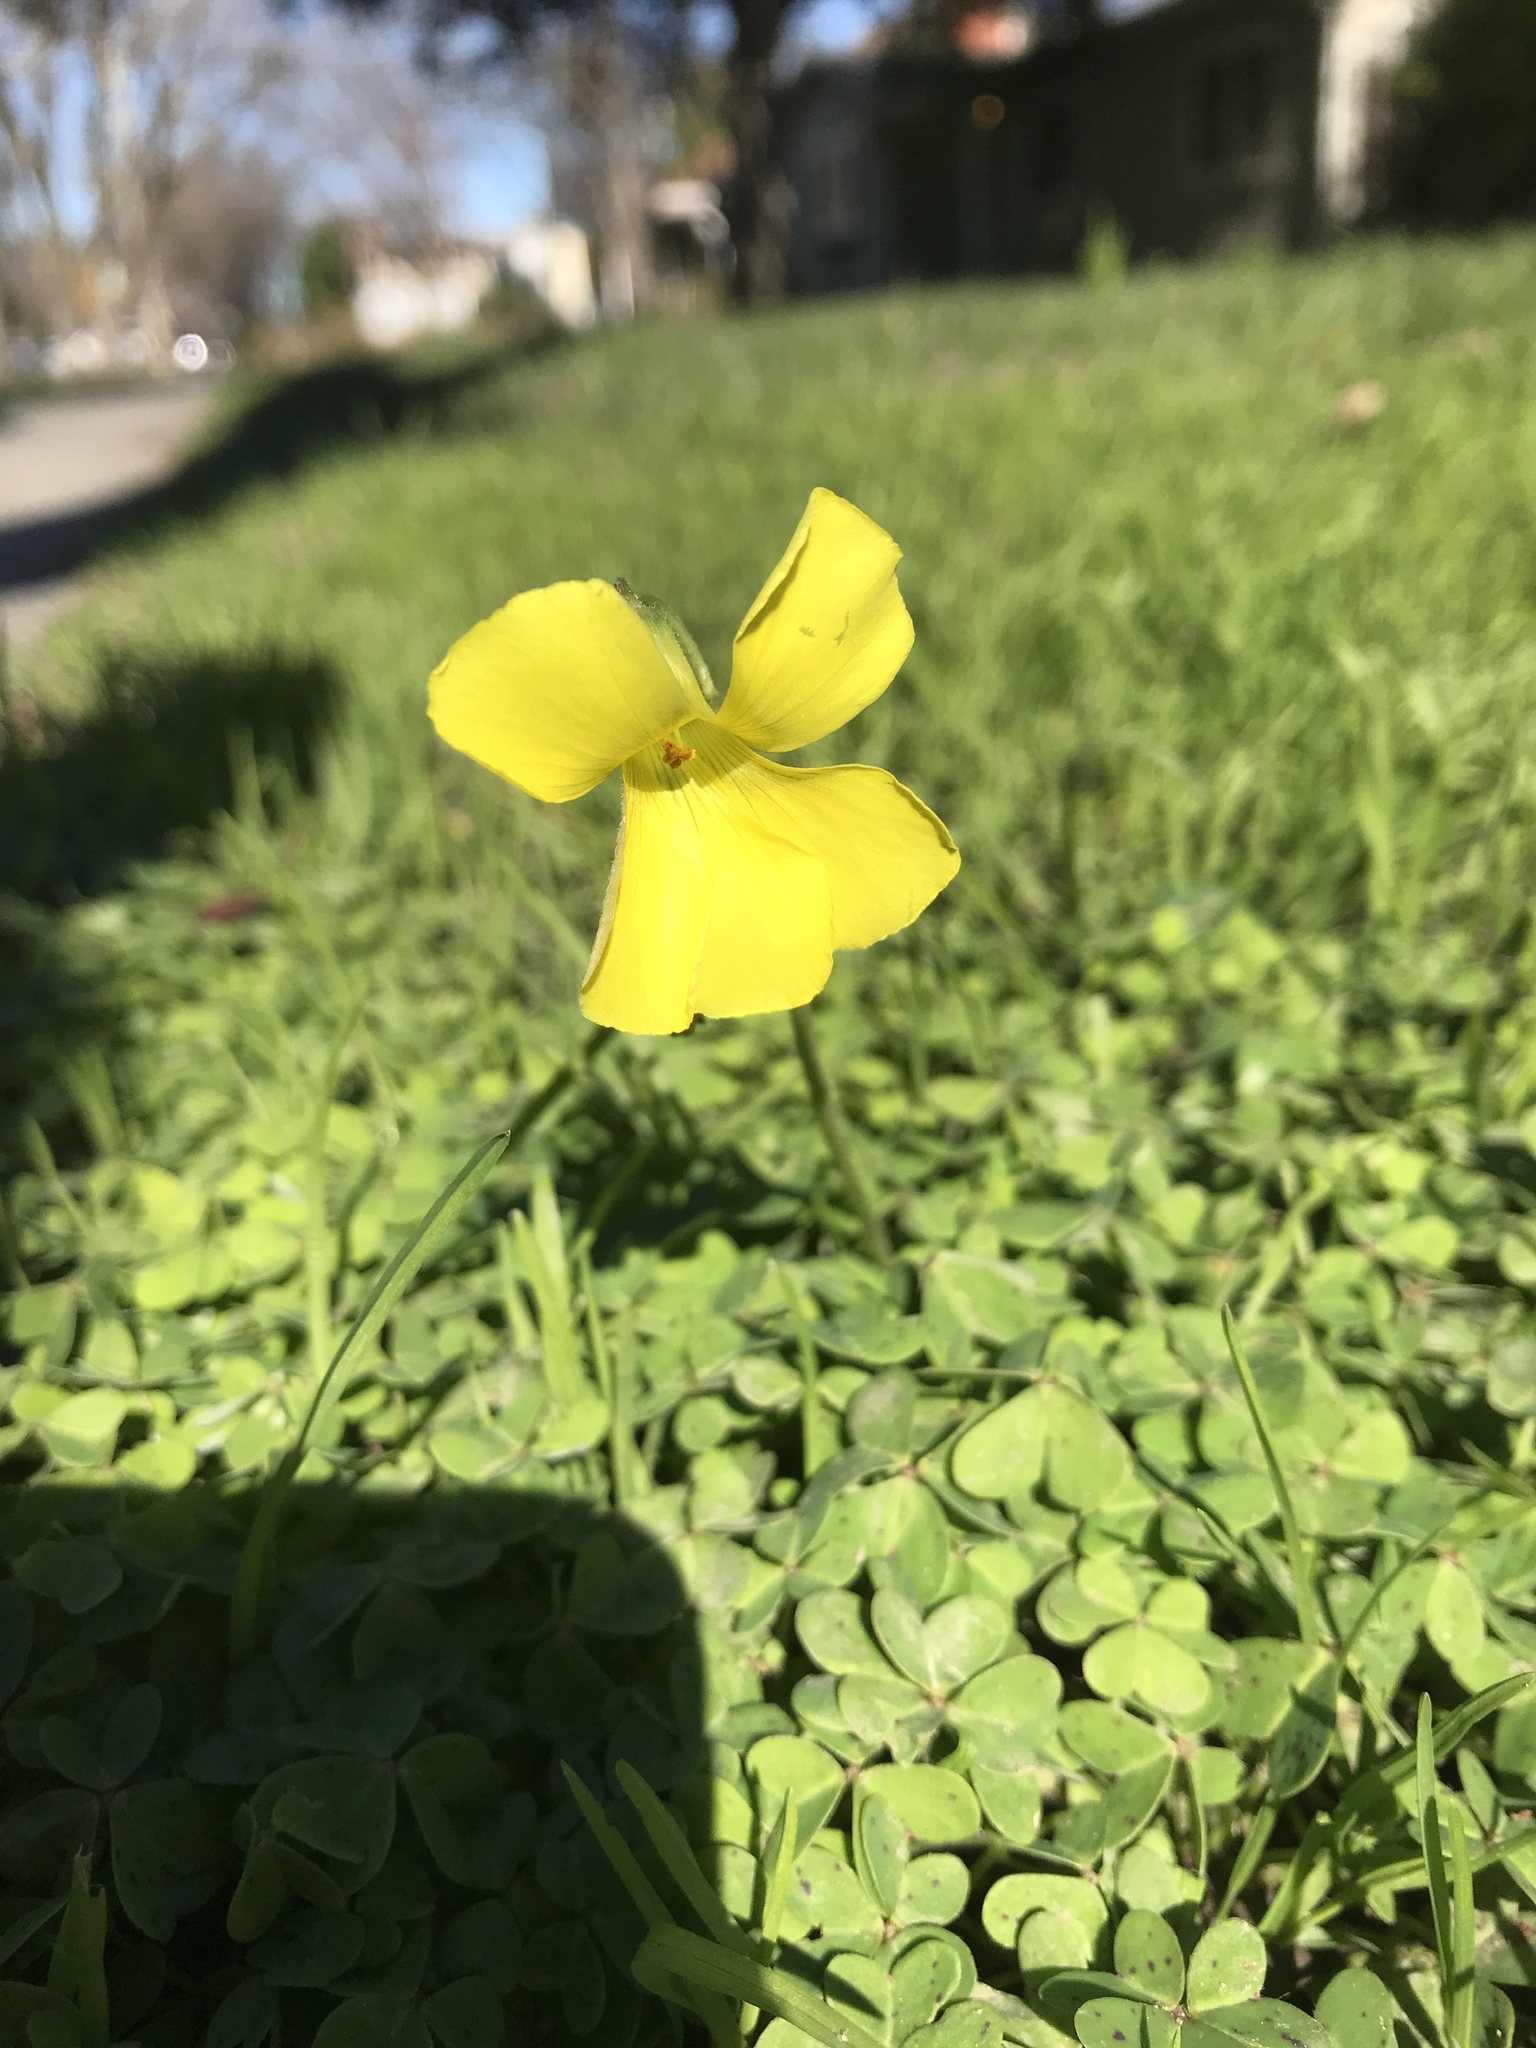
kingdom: Plantae
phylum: Tracheophyta
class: Magnoliopsida
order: Oxalidales
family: Oxalidaceae
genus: Oxalis
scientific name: Oxalis pes-caprae
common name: Bermuda-buttercup
